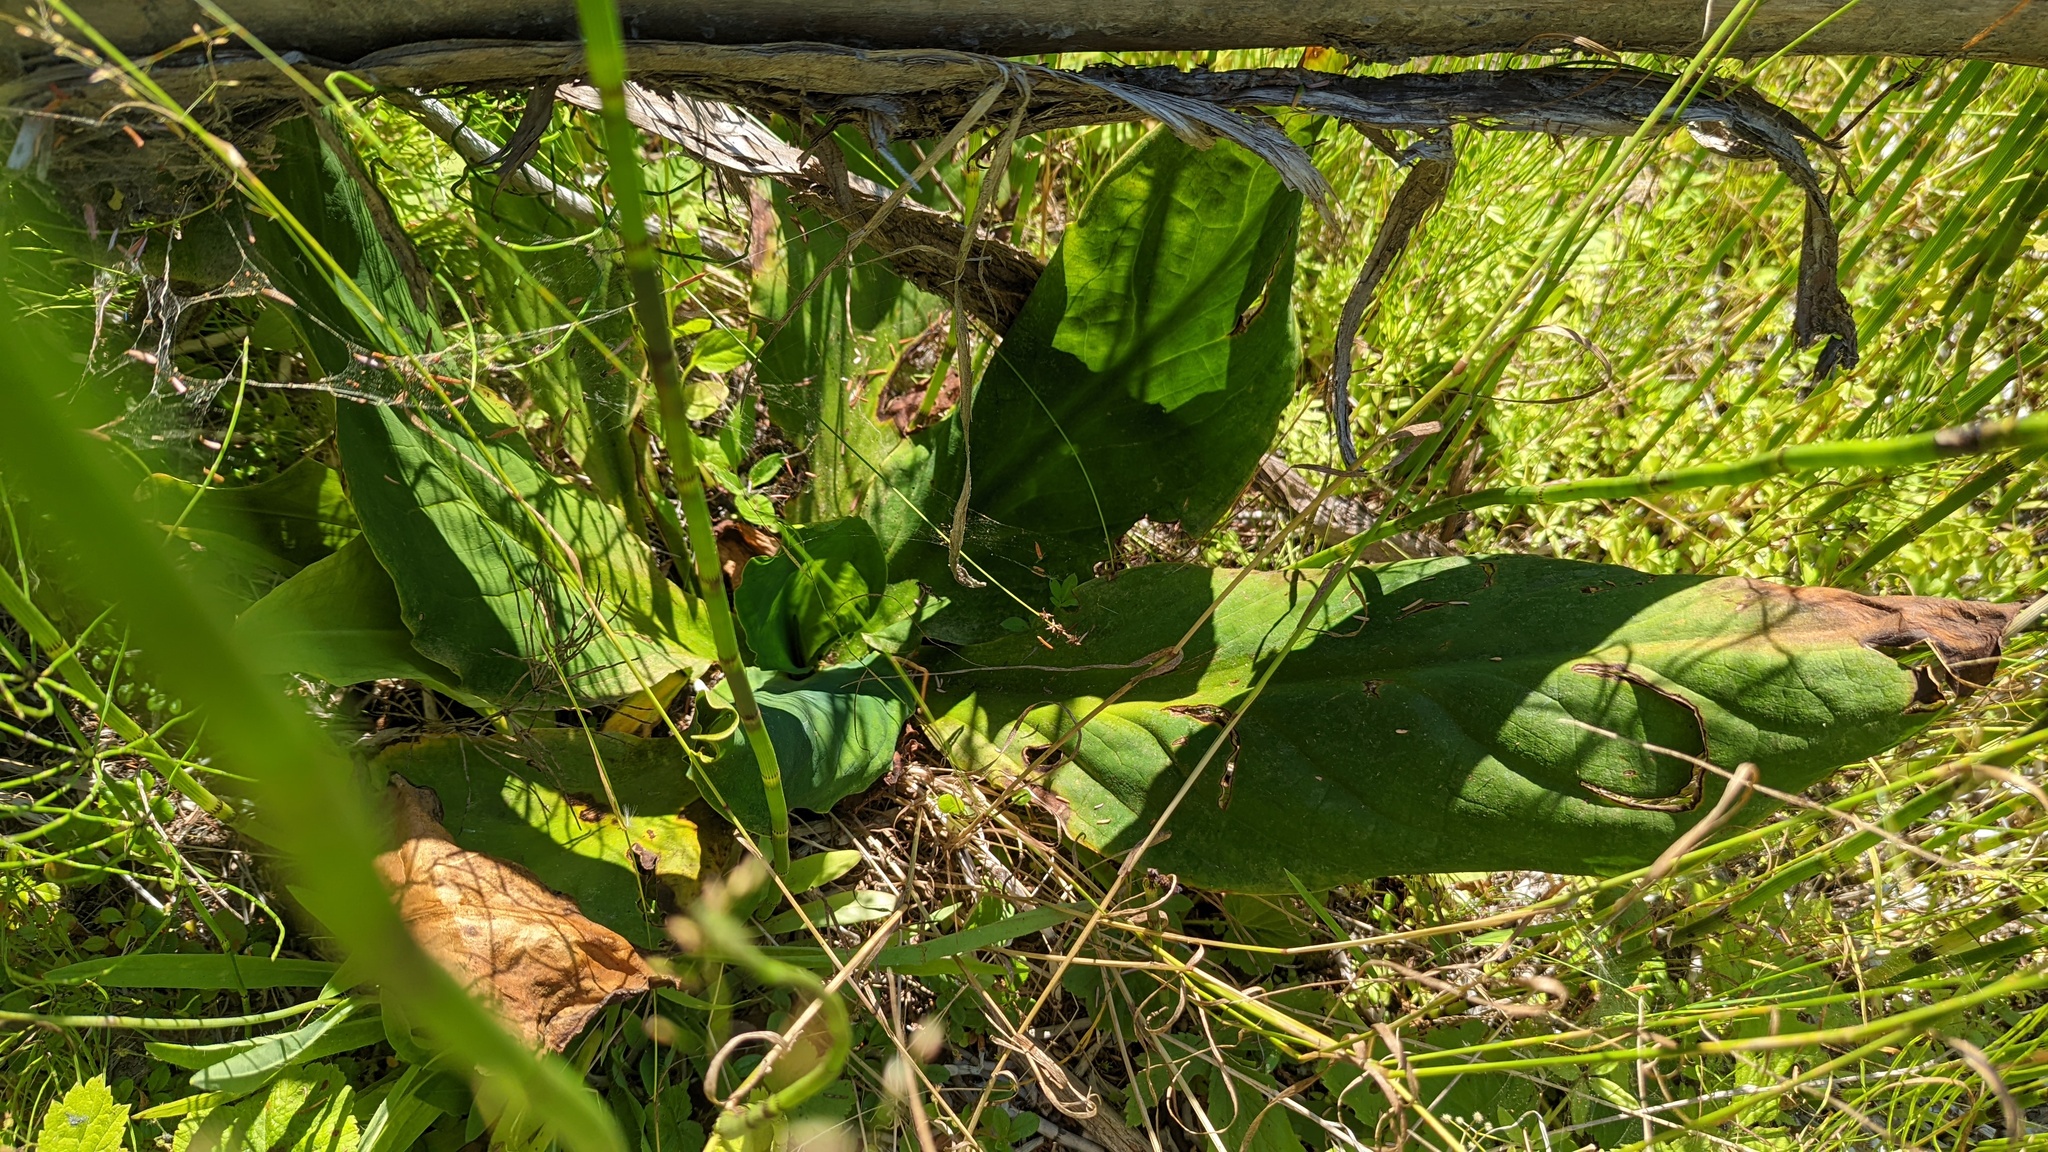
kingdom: Plantae
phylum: Tracheophyta
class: Liliopsida
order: Alismatales
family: Araceae
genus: Lysichiton
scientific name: Lysichiton americanus
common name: American skunk cabbage
